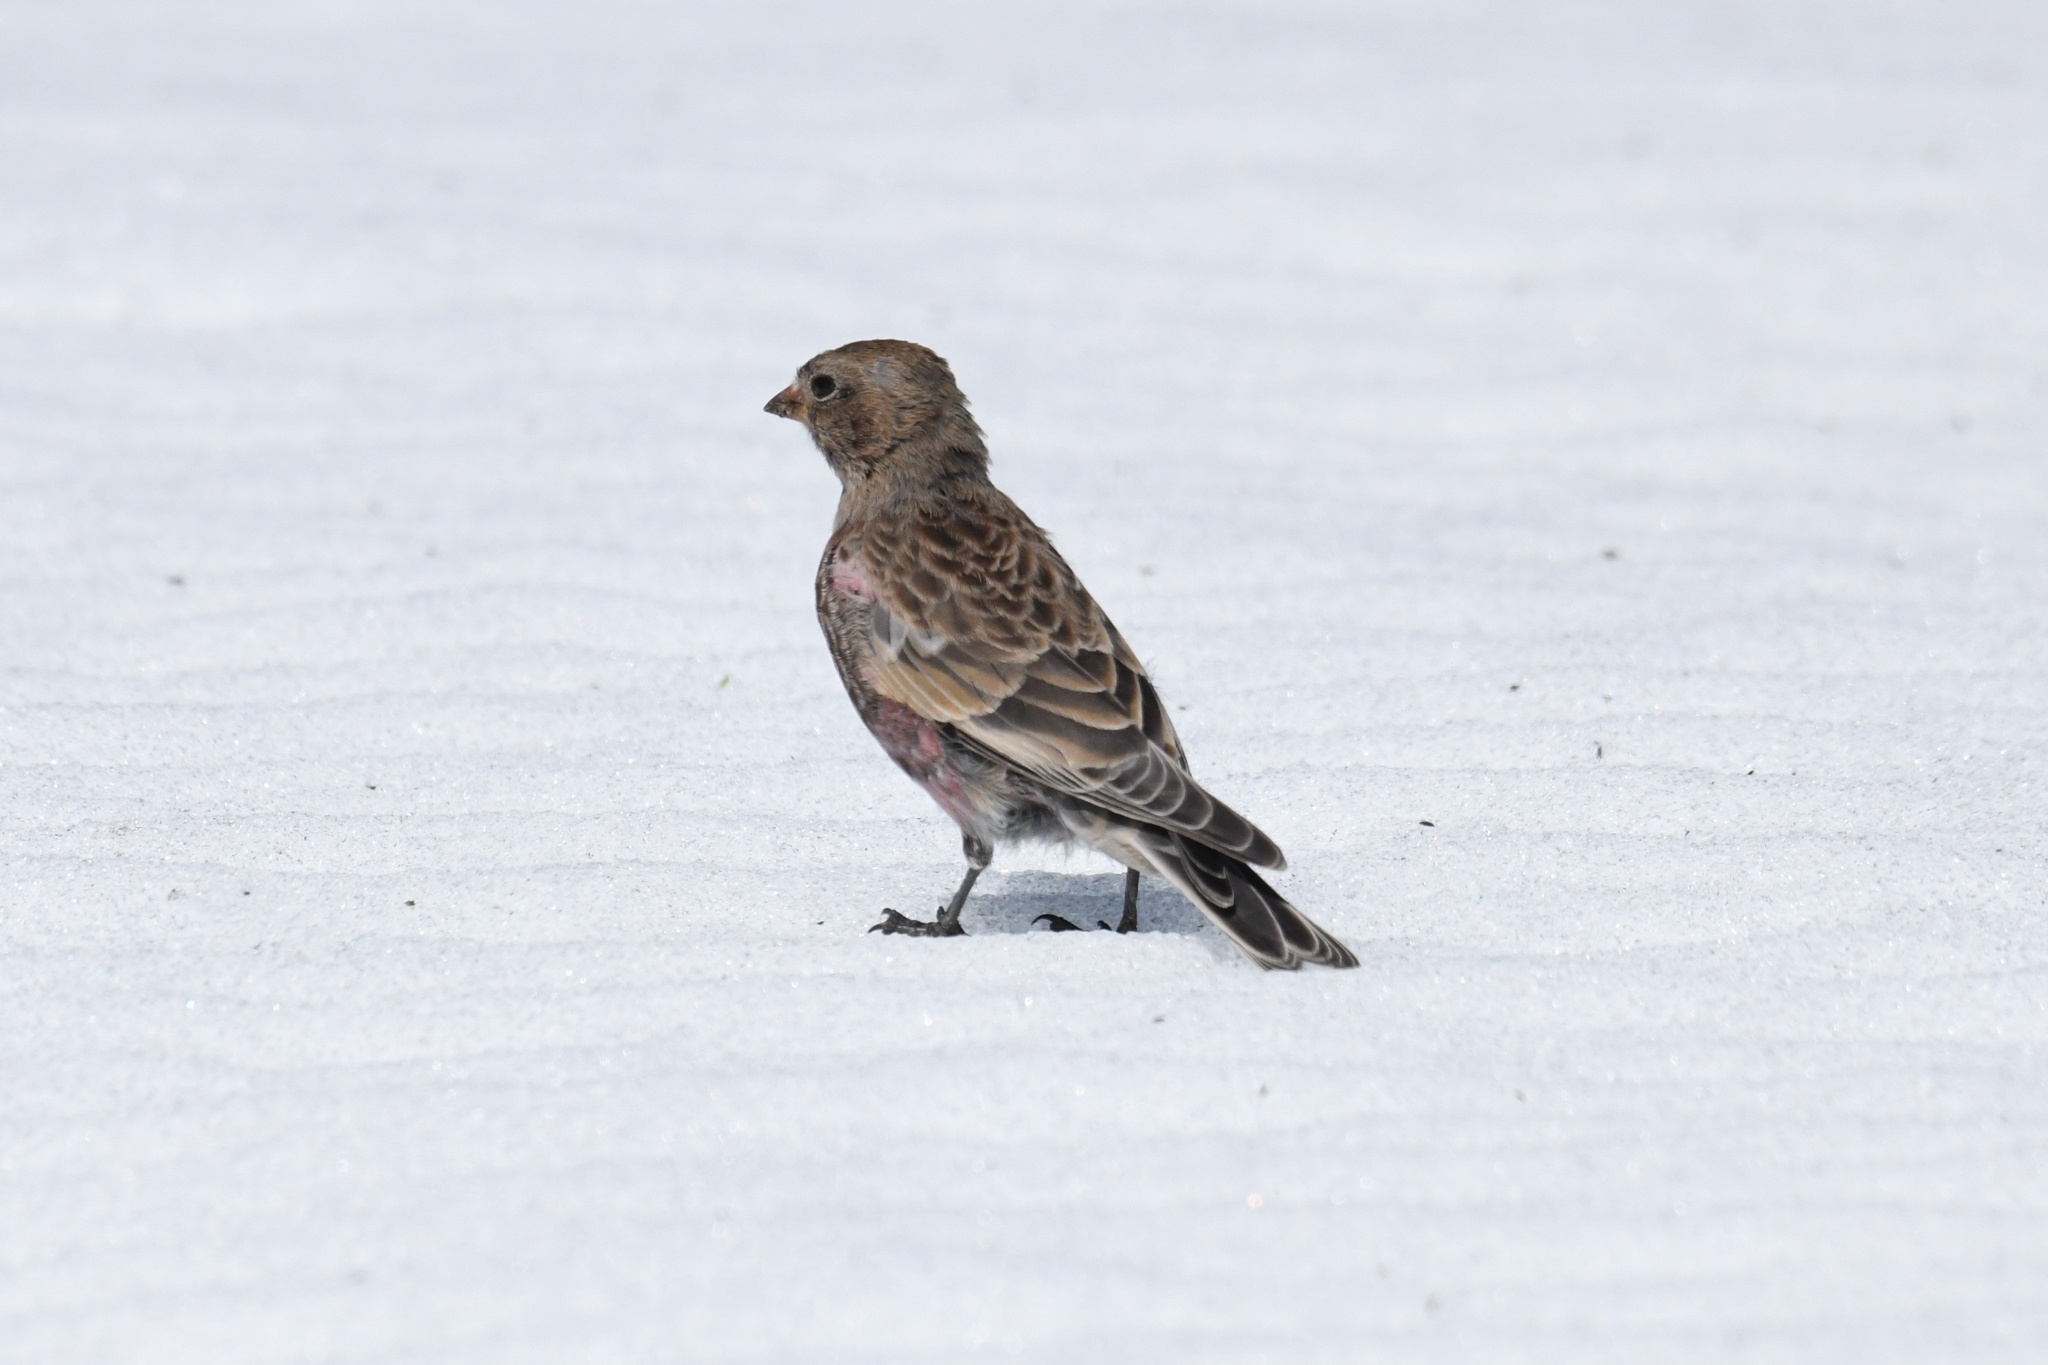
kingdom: Animalia
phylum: Chordata
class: Aves
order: Passeriformes
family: Fringillidae
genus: Leucosticte
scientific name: Leucosticte tephrocotis
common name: Gray-crowned rosy-finch
